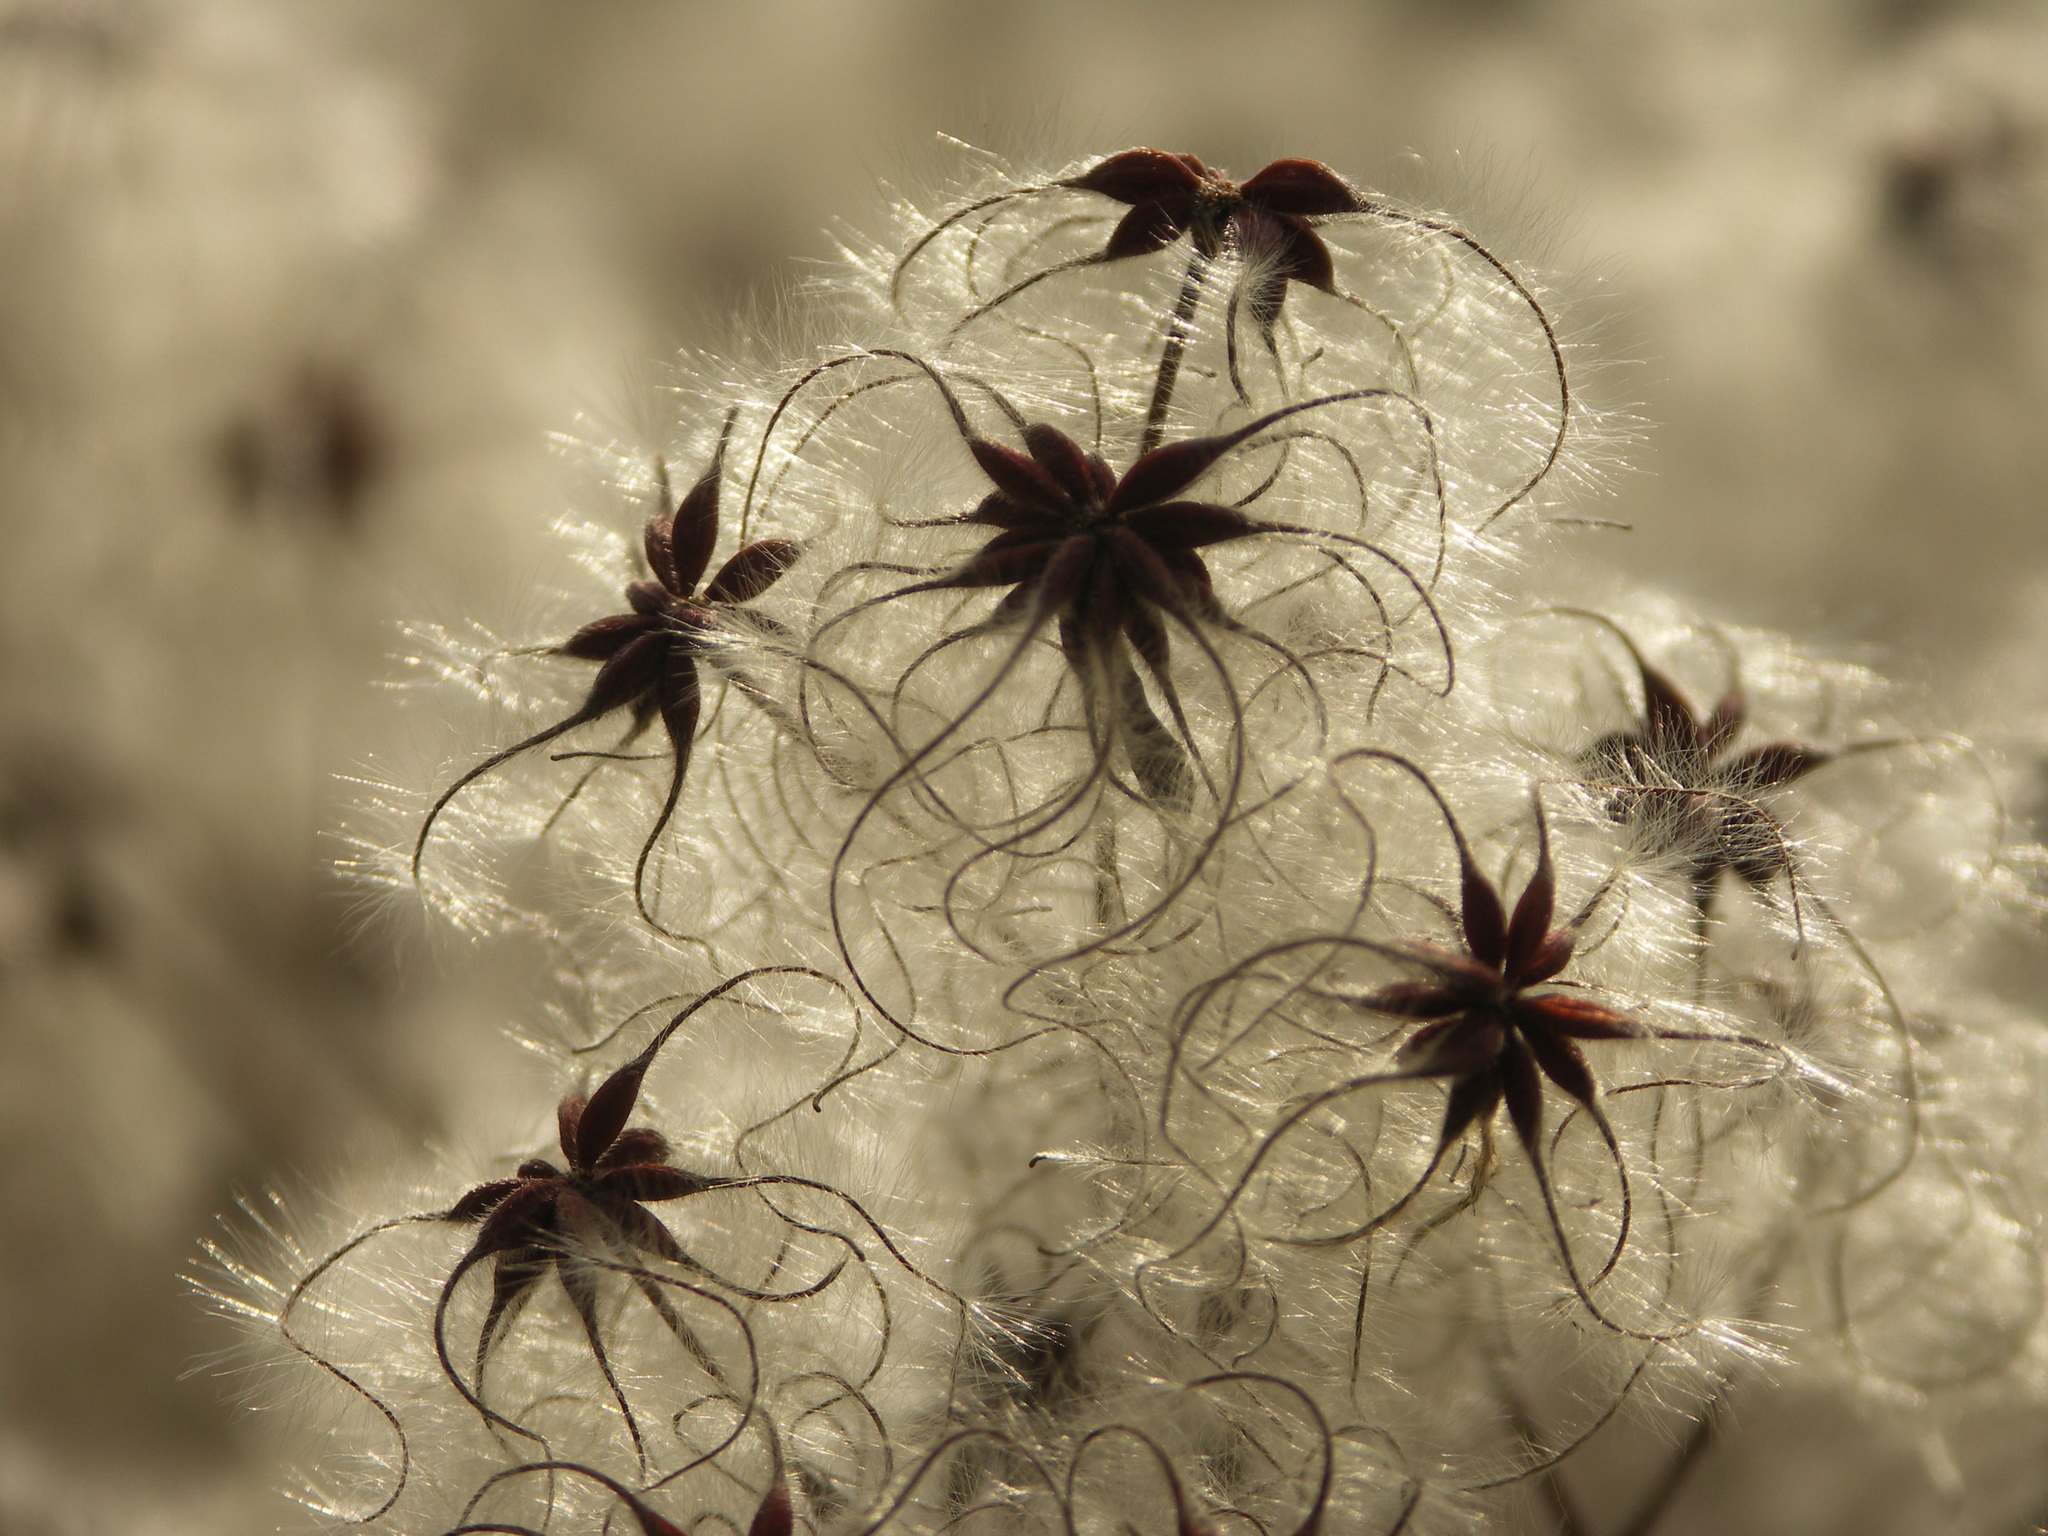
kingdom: Plantae
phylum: Tracheophyta
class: Magnoliopsida
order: Ranunculales
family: Ranunculaceae
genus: Clematis
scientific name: Clematis vitalba
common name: Evergreen clematis
